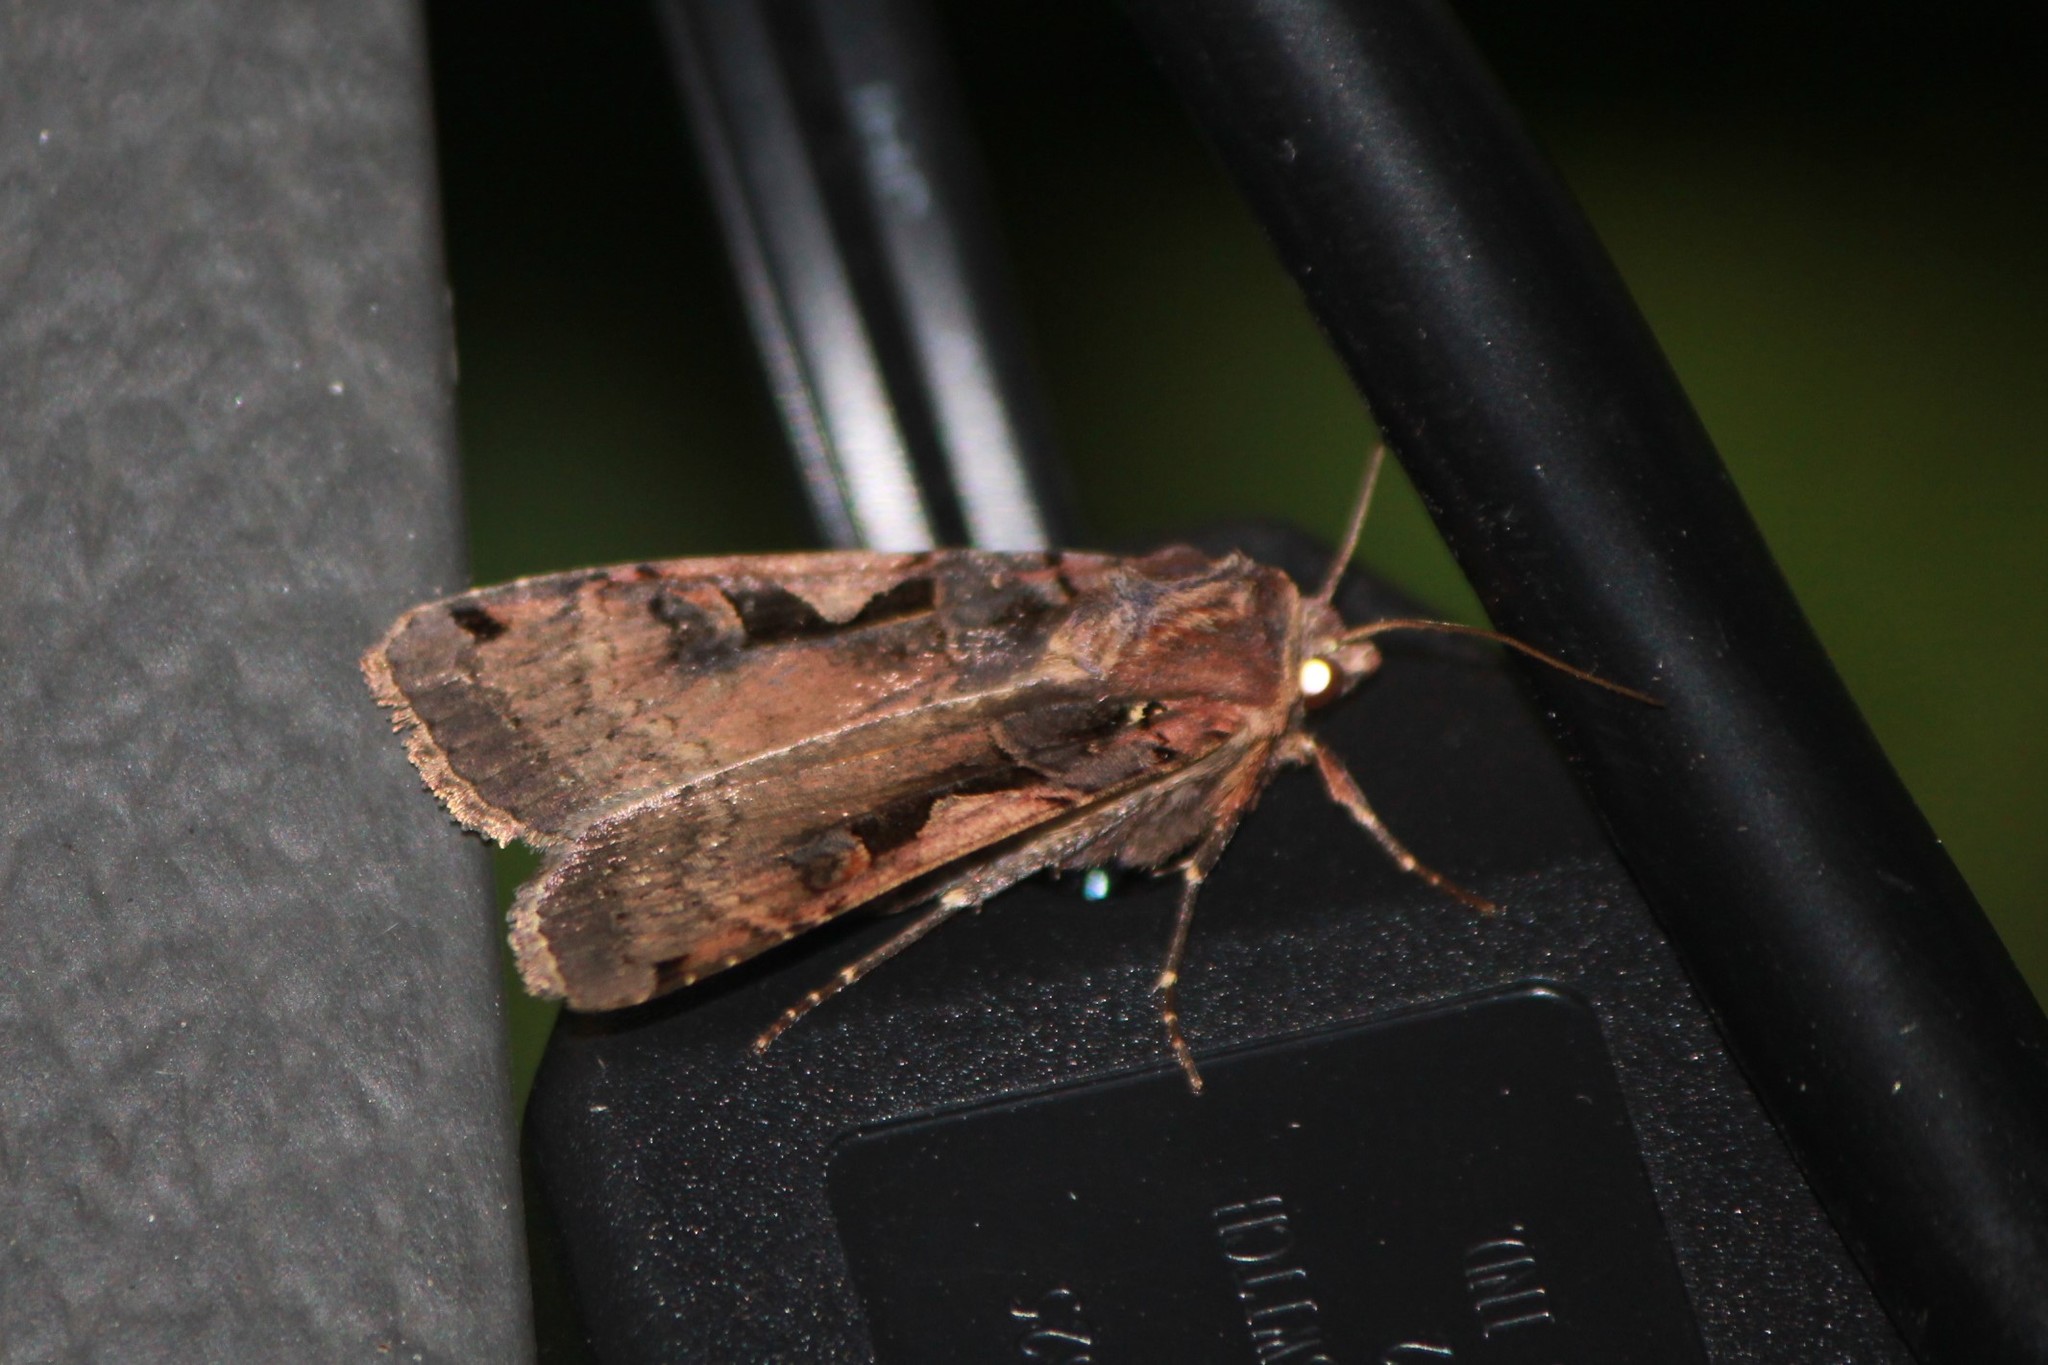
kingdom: Animalia
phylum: Arthropoda
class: Insecta
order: Lepidoptera
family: Noctuidae
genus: Xestia
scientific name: Xestia dolosa
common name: Cutworm moth
